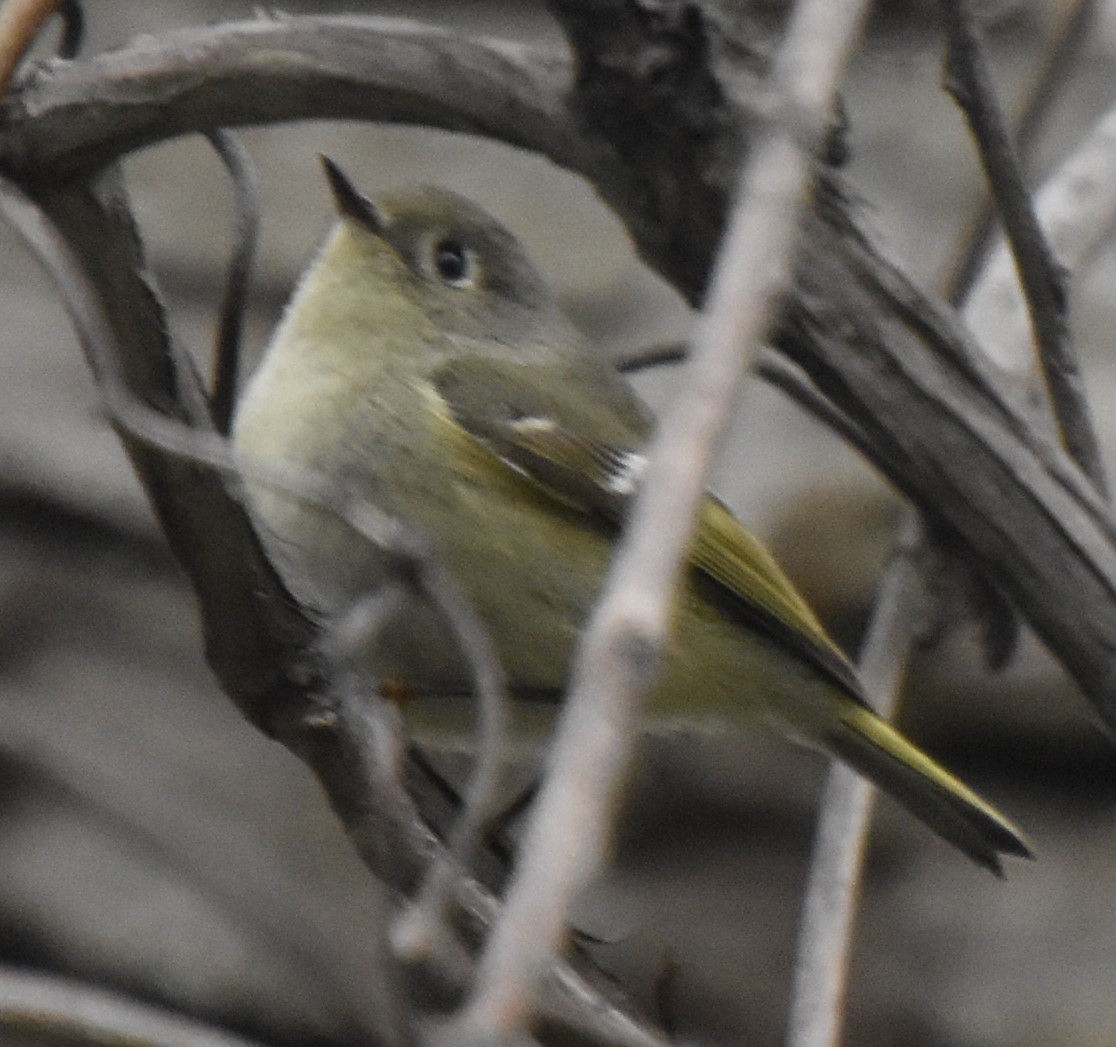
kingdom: Animalia
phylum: Chordata
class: Aves
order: Passeriformes
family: Regulidae
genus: Regulus
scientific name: Regulus calendula
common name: Ruby-crowned kinglet
